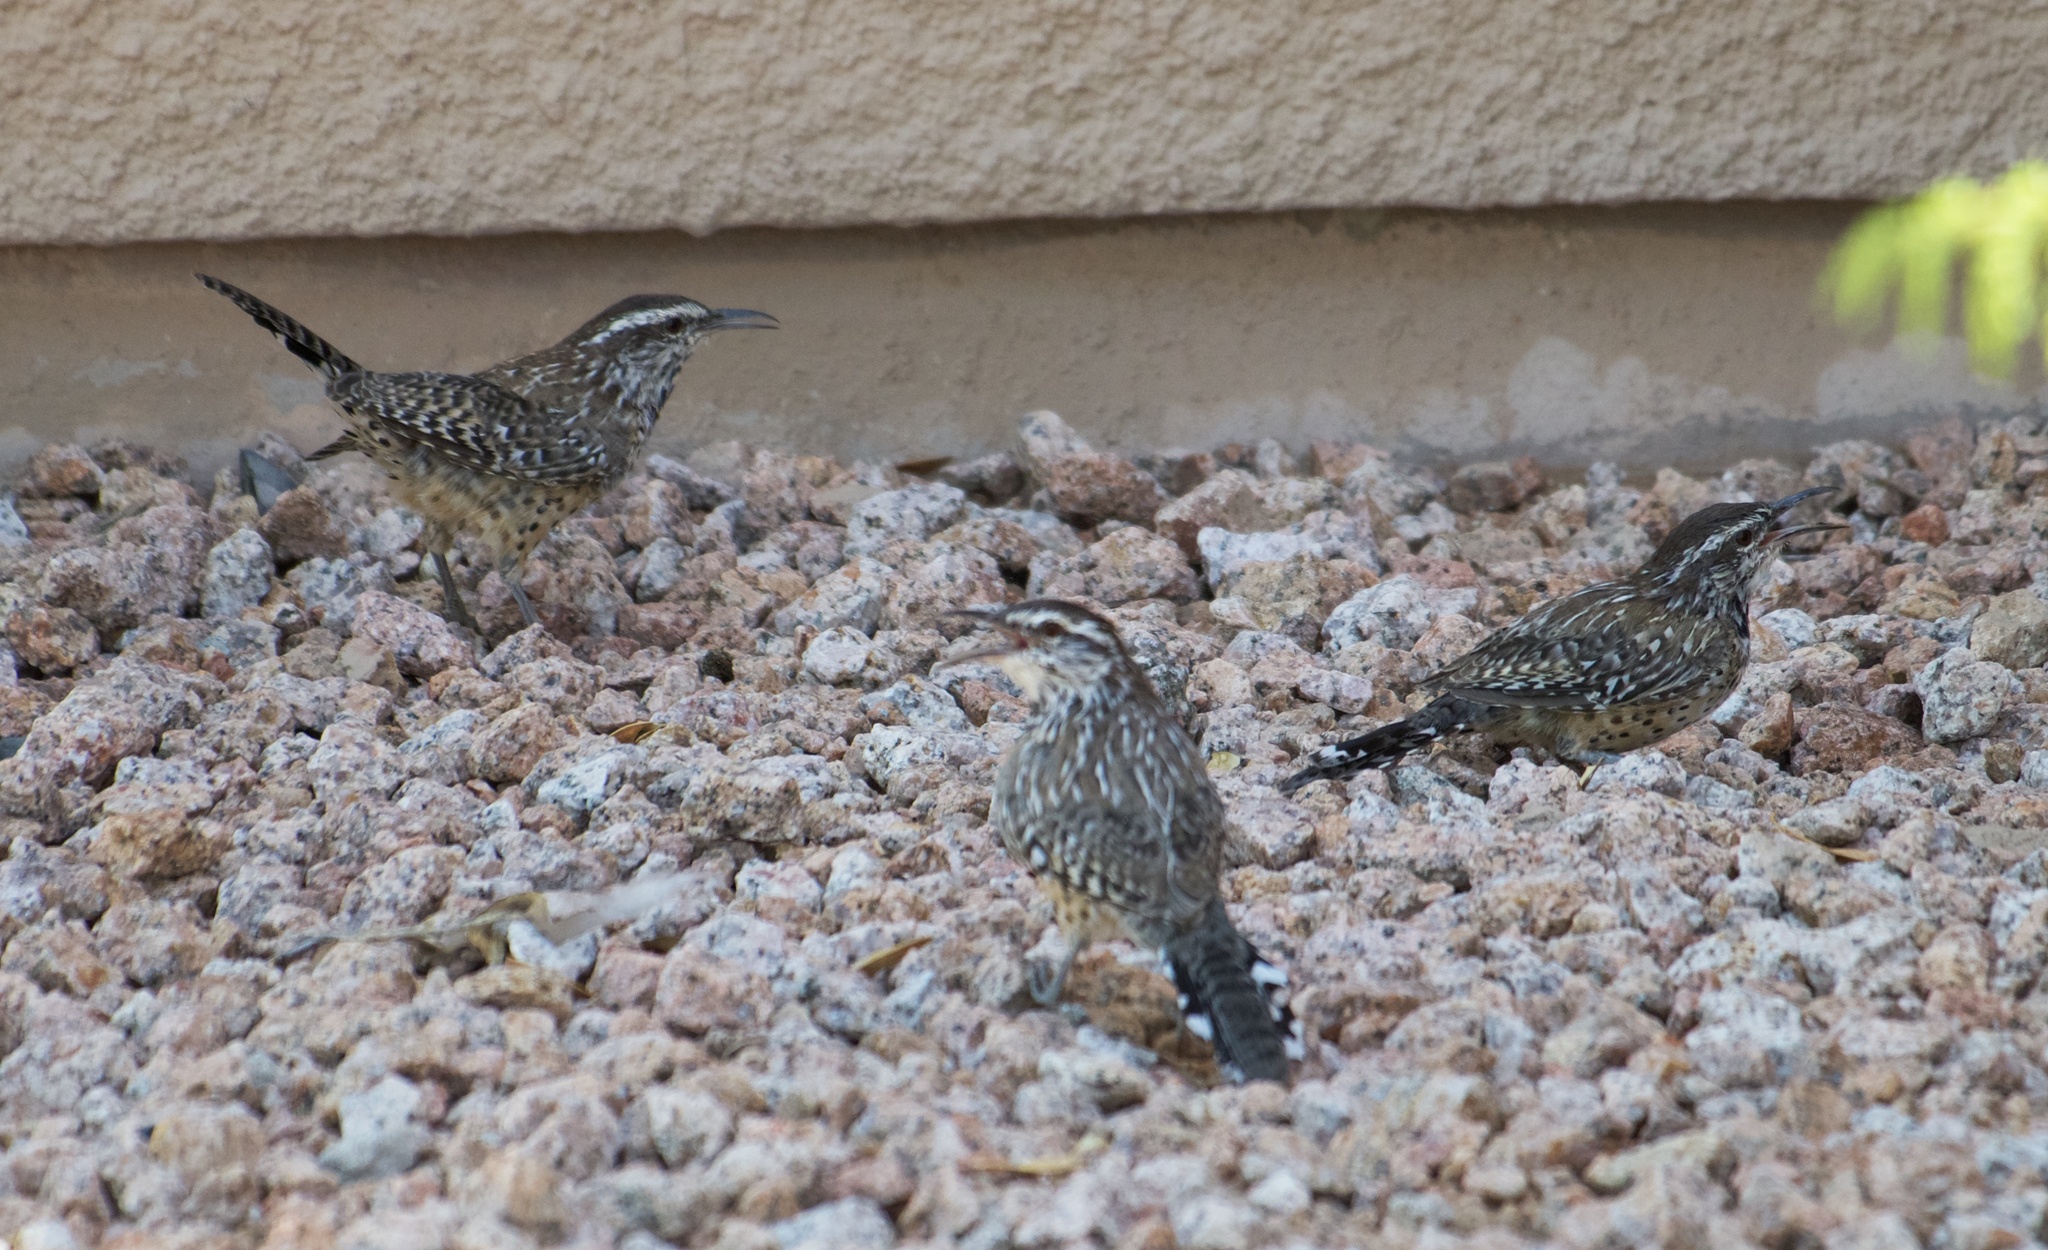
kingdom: Animalia
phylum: Chordata
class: Aves
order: Passeriformes
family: Troglodytidae
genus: Campylorhynchus
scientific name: Campylorhynchus brunneicapillus
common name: Cactus wren
